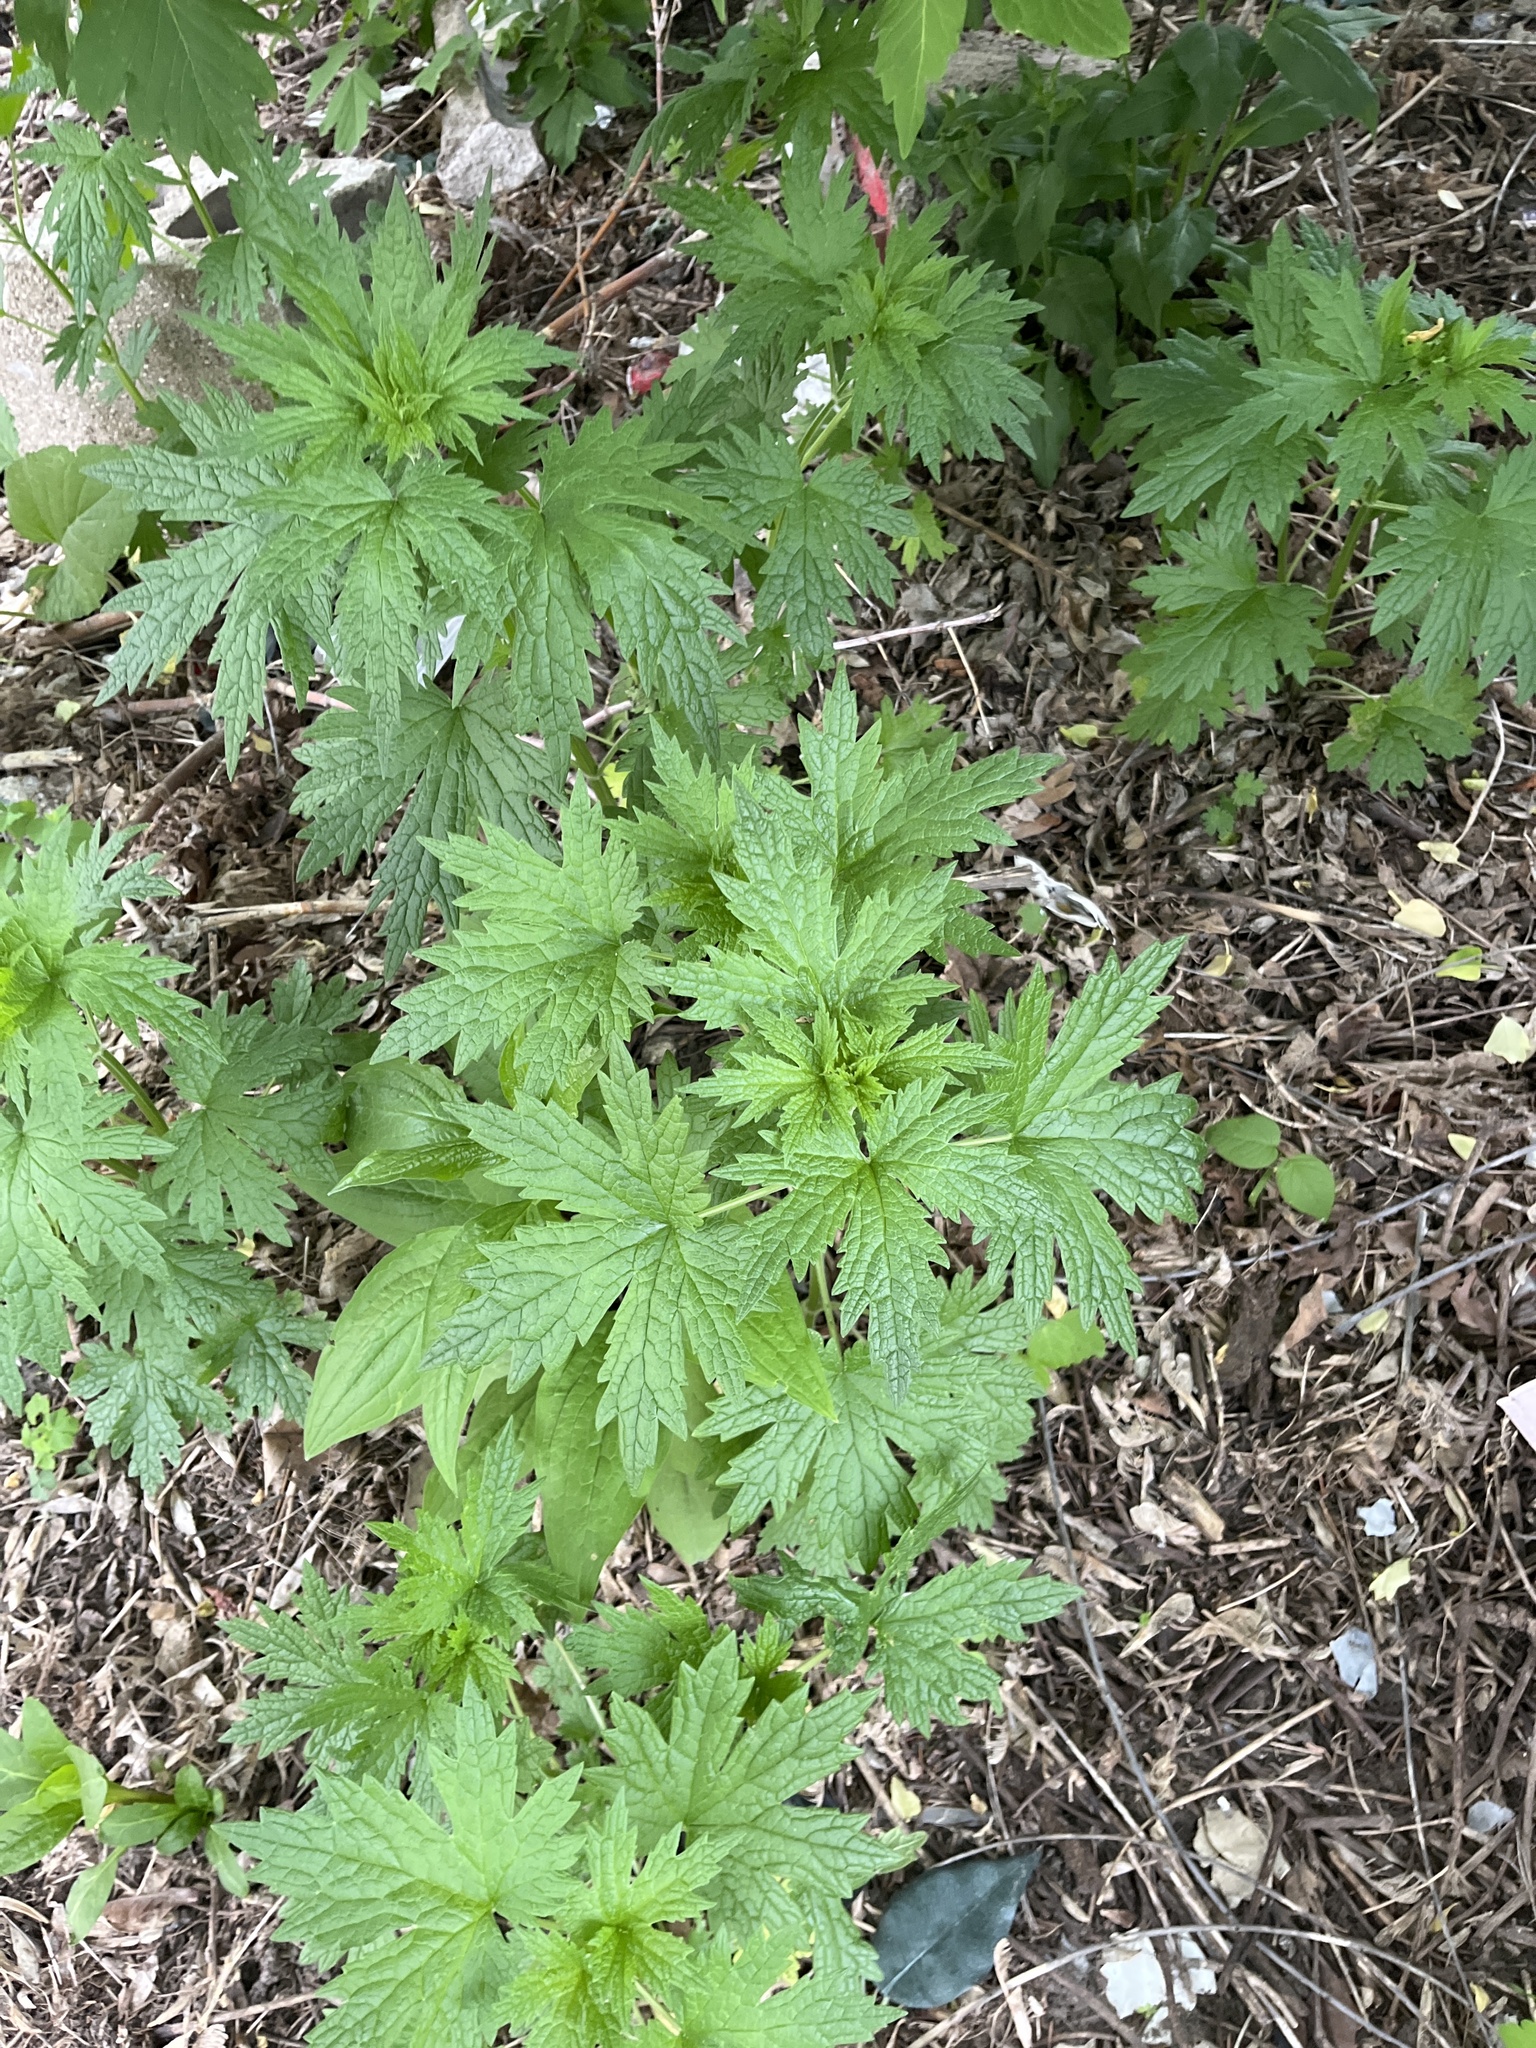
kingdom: Plantae
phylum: Tracheophyta
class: Magnoliopsida
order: Lamiales
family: Lamiaceae
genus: Leonurus
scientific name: Leonurus cardiaca
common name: Motherwort
